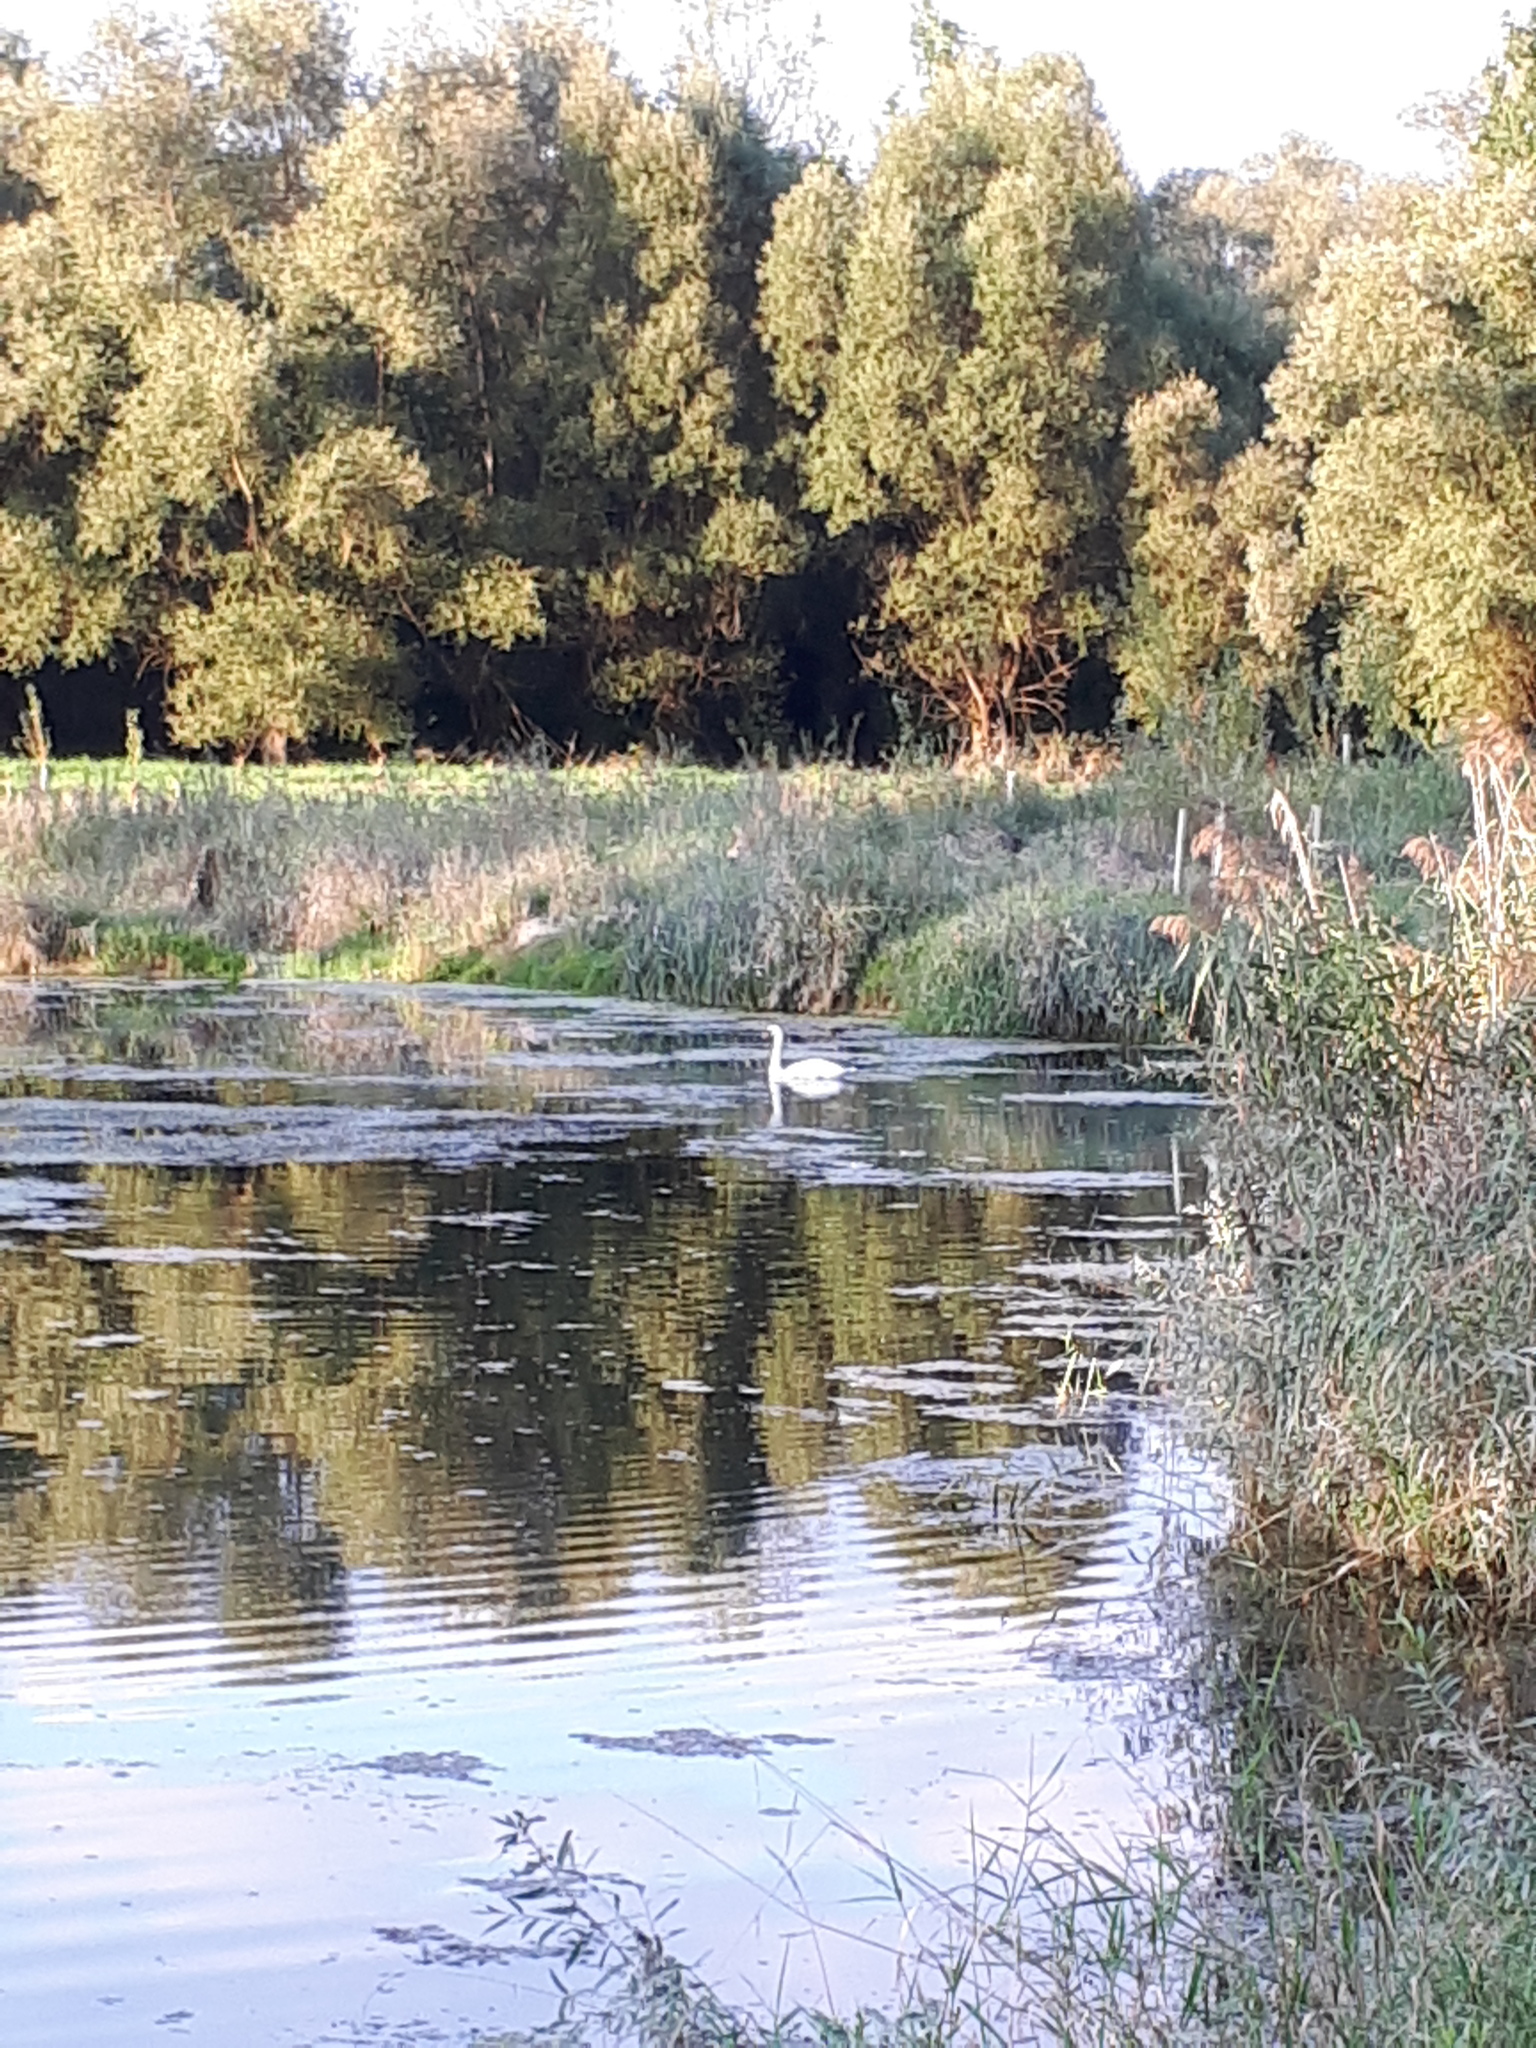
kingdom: Animalia
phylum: Chordata
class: Aves
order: Anseriformes
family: Anatidae
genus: Cygnus
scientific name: Cygnus olor
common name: Mute swan
